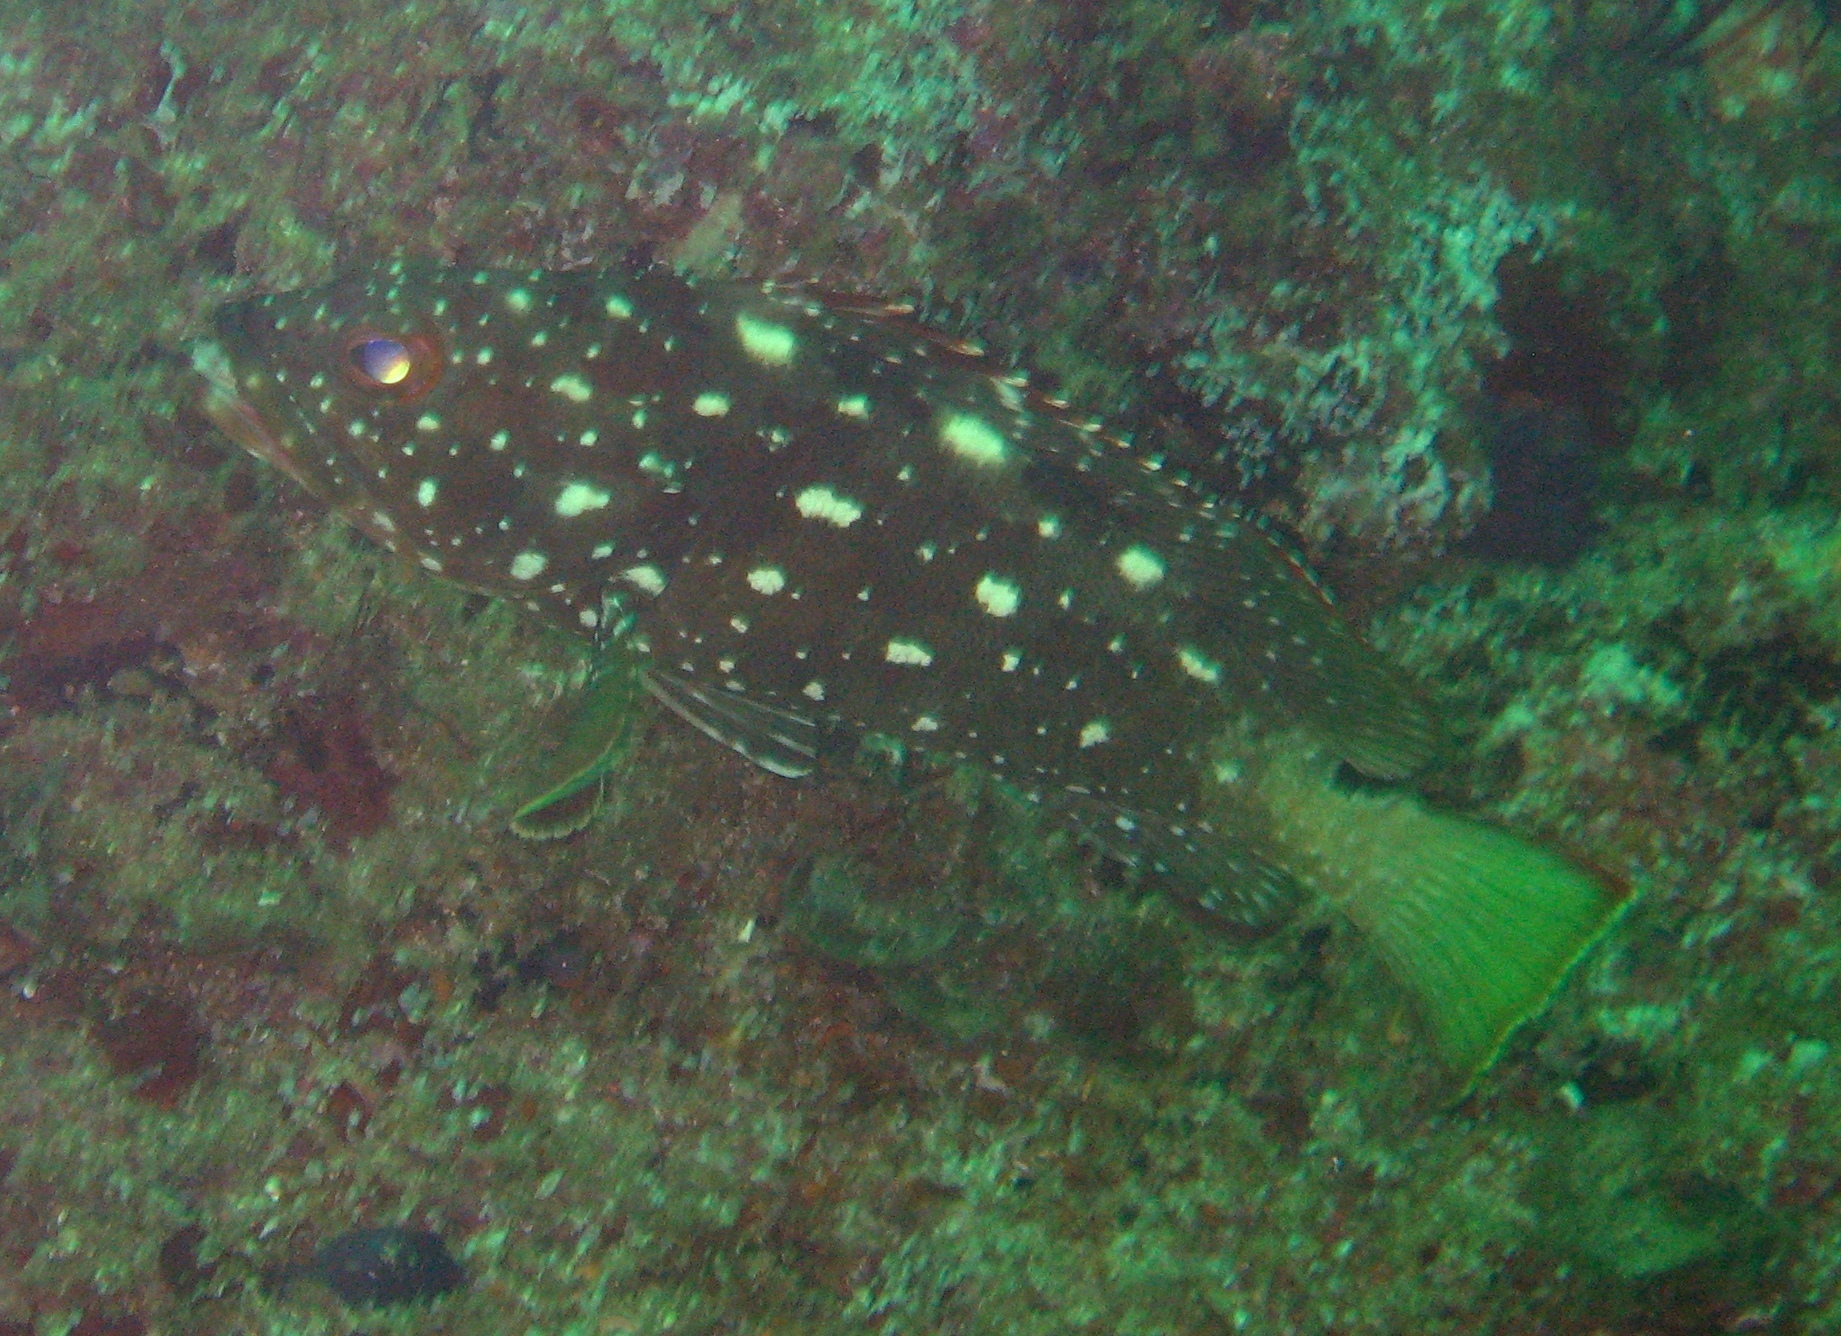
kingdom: Animalia
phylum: Chordata
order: Perciformes
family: Serranidae
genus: Epinephelus
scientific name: Epinephelus labriformis
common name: Flag cabrilla
